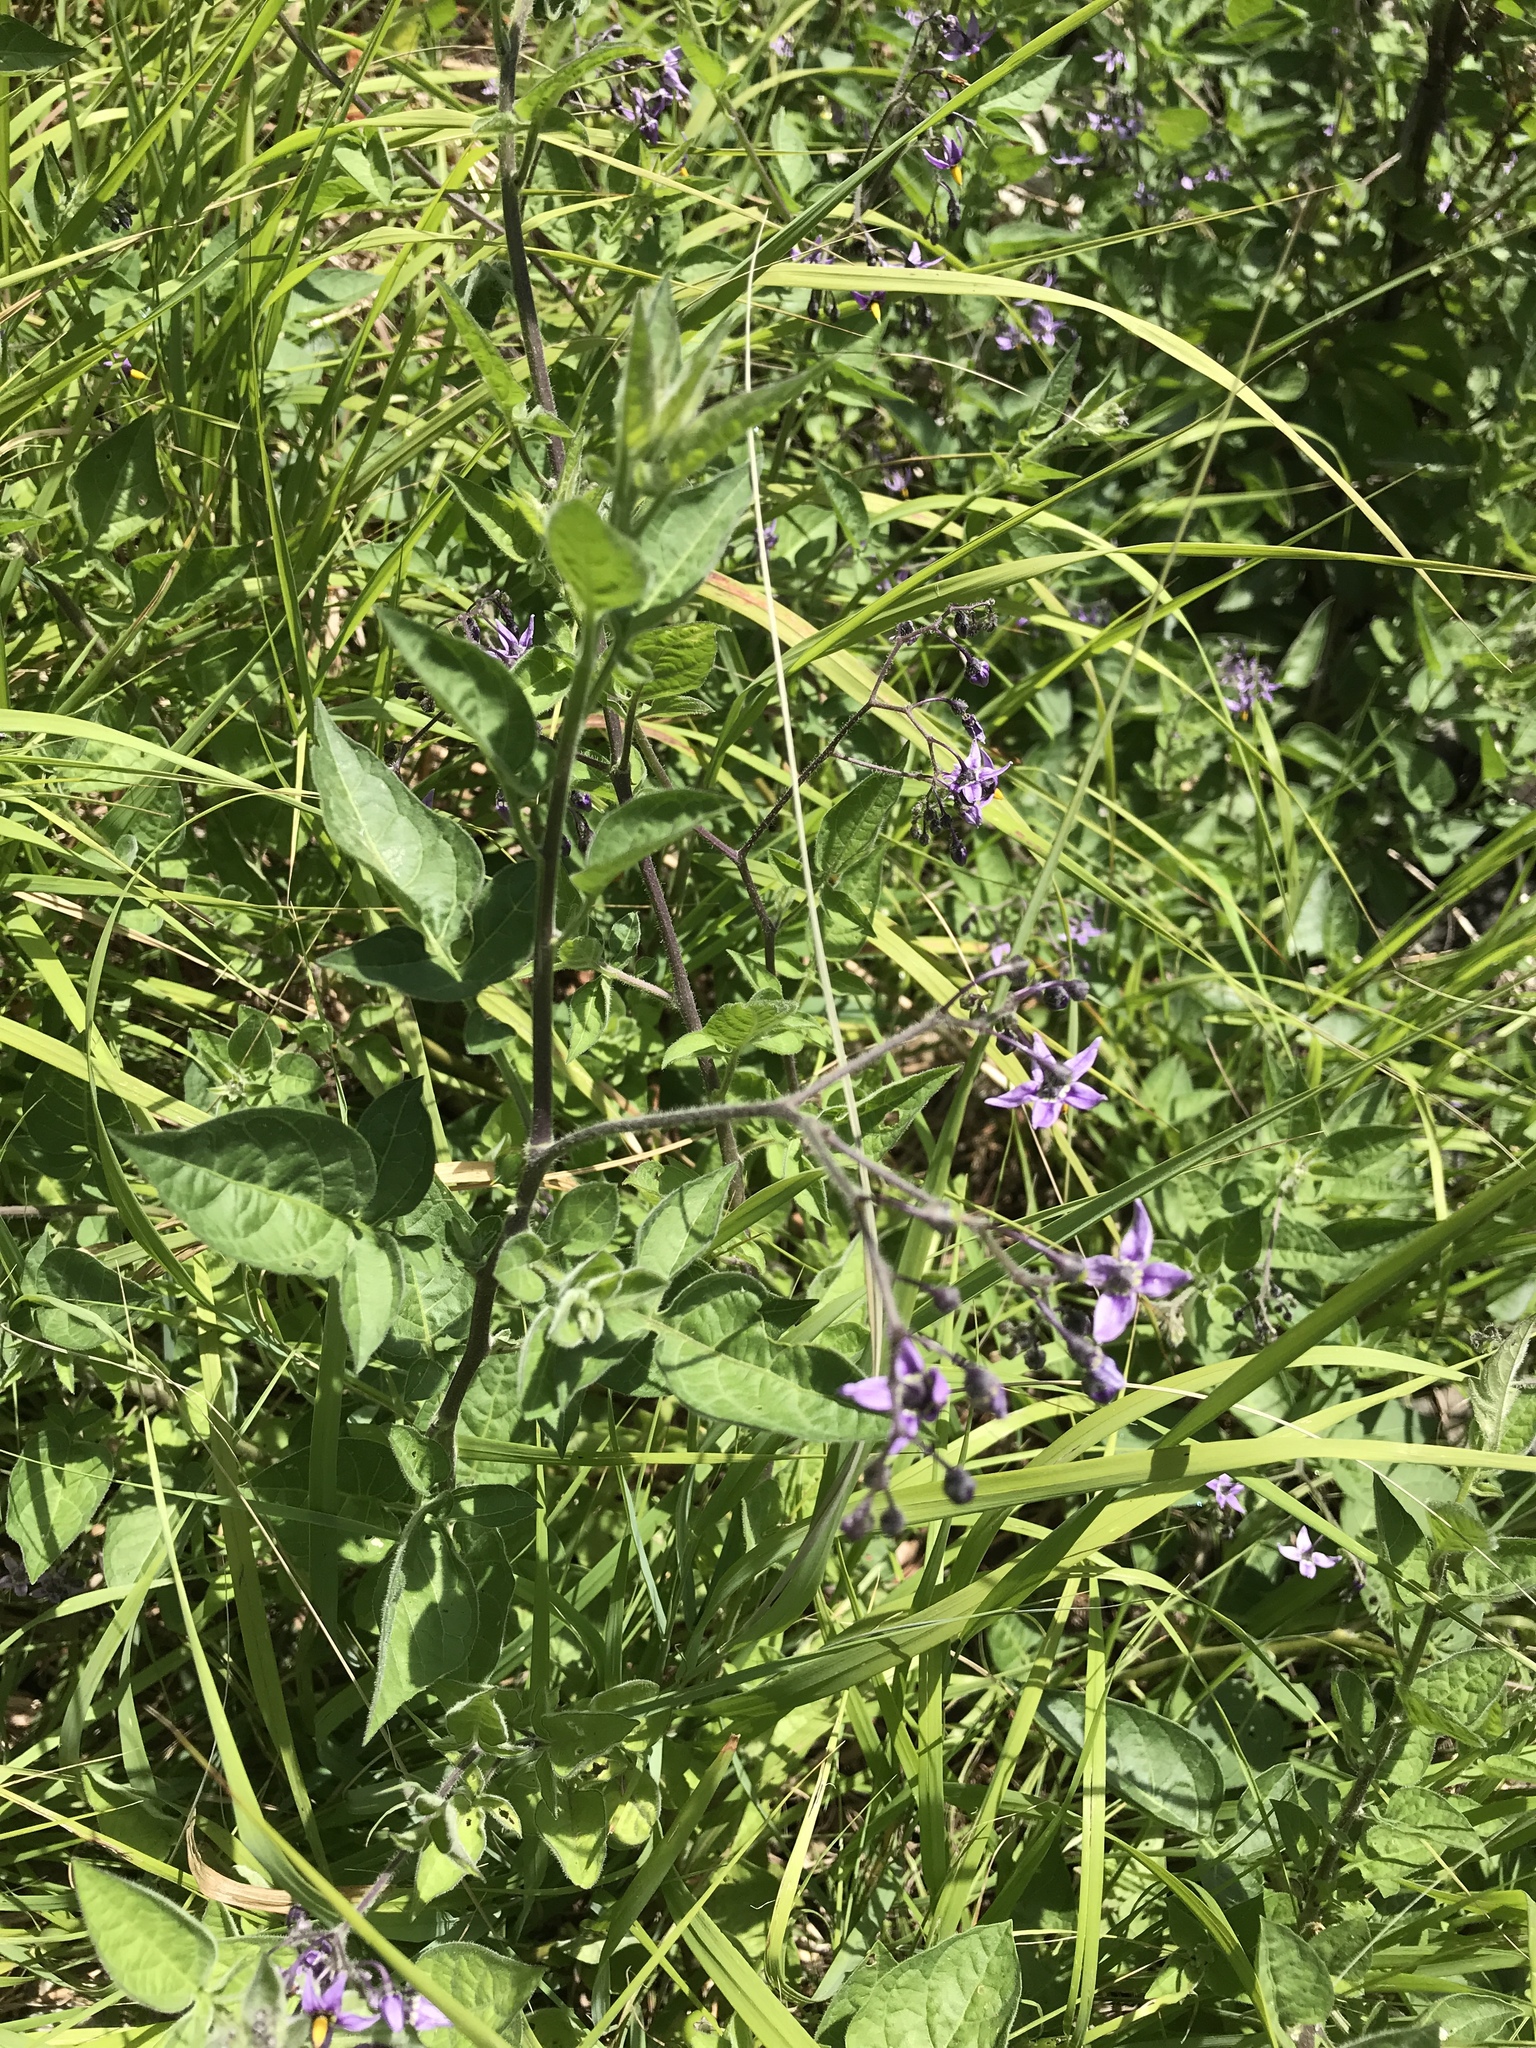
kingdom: Plantae
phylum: Tracheophyta
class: Magnoliopsida
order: Solanales
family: Solanaceae
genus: Solanum
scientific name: Solanum dulcamara
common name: Climbing nightshade
